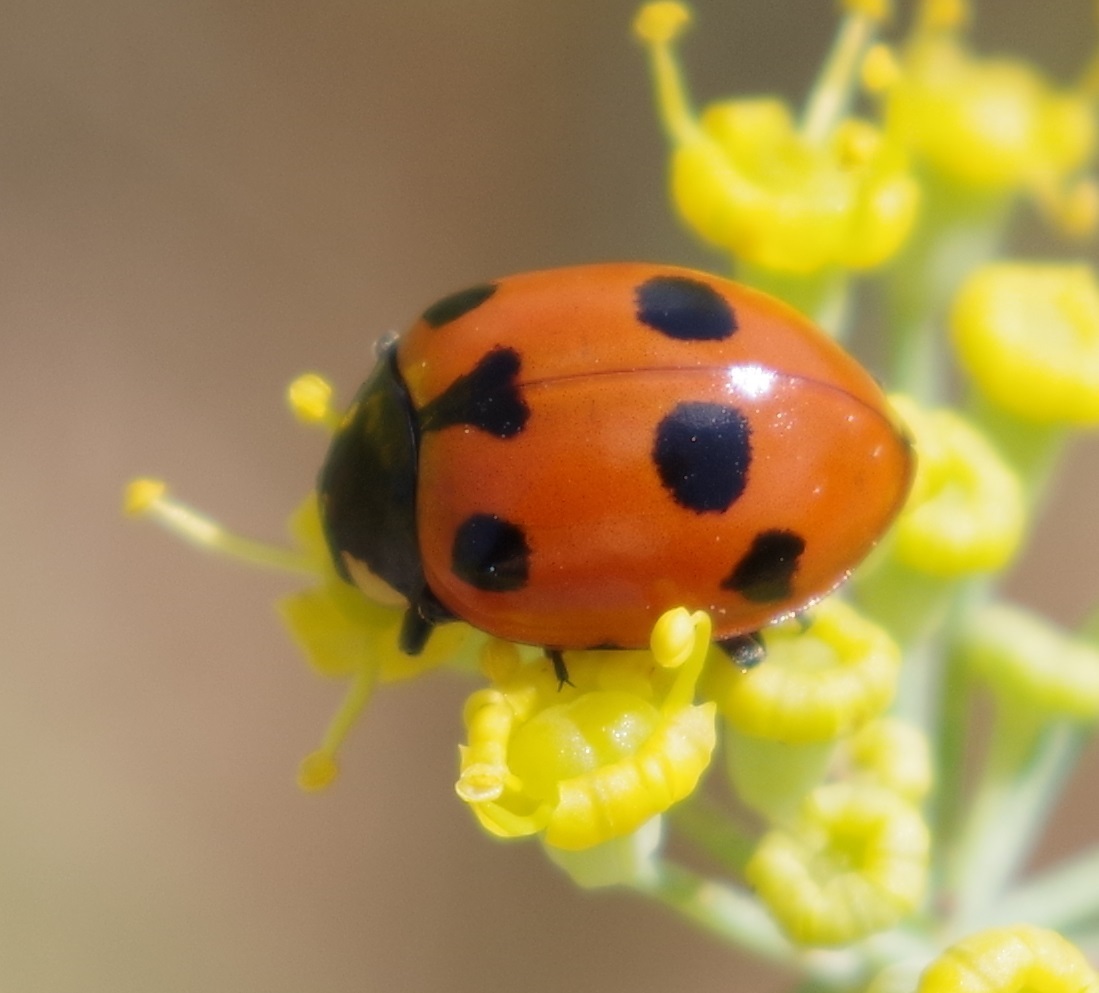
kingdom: Animalia
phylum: Arthropoda
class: Insecta
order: Coleoptera
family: Coccinellidae
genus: Ceratomegilla
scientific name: Ceratomegilla undecimnotata
